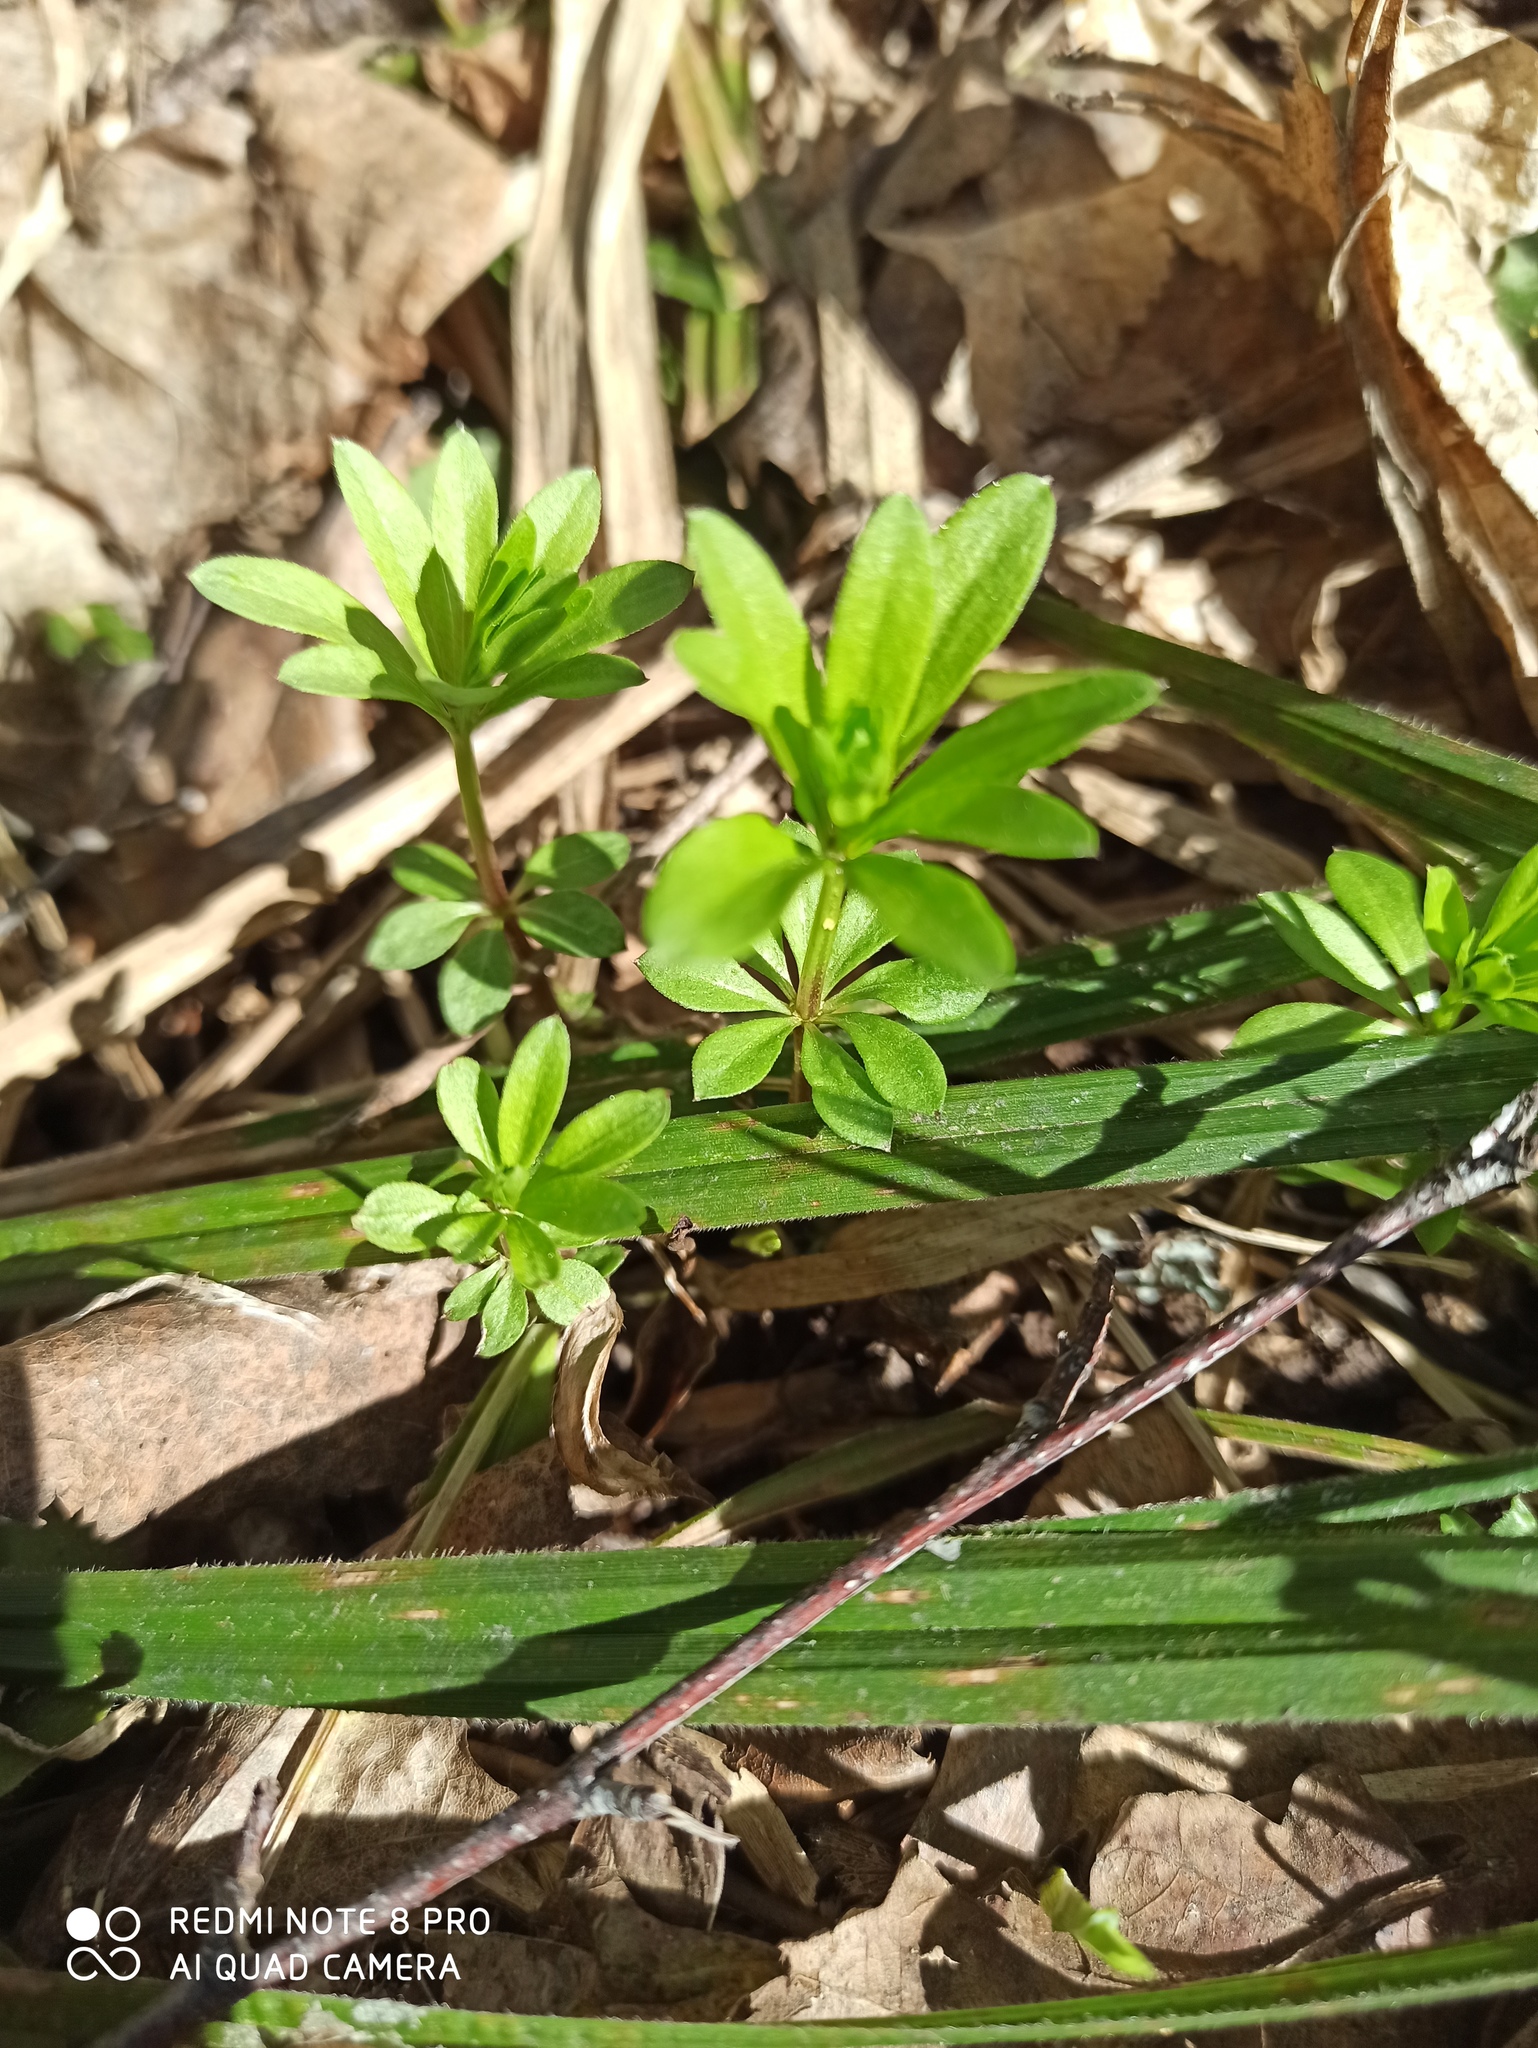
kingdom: Plantae
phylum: Tracheophyta
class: Magnoliopsida
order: Gentianales
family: Rubiaceae
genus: Galium
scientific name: Galium odoratum
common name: Sweet woodruff
